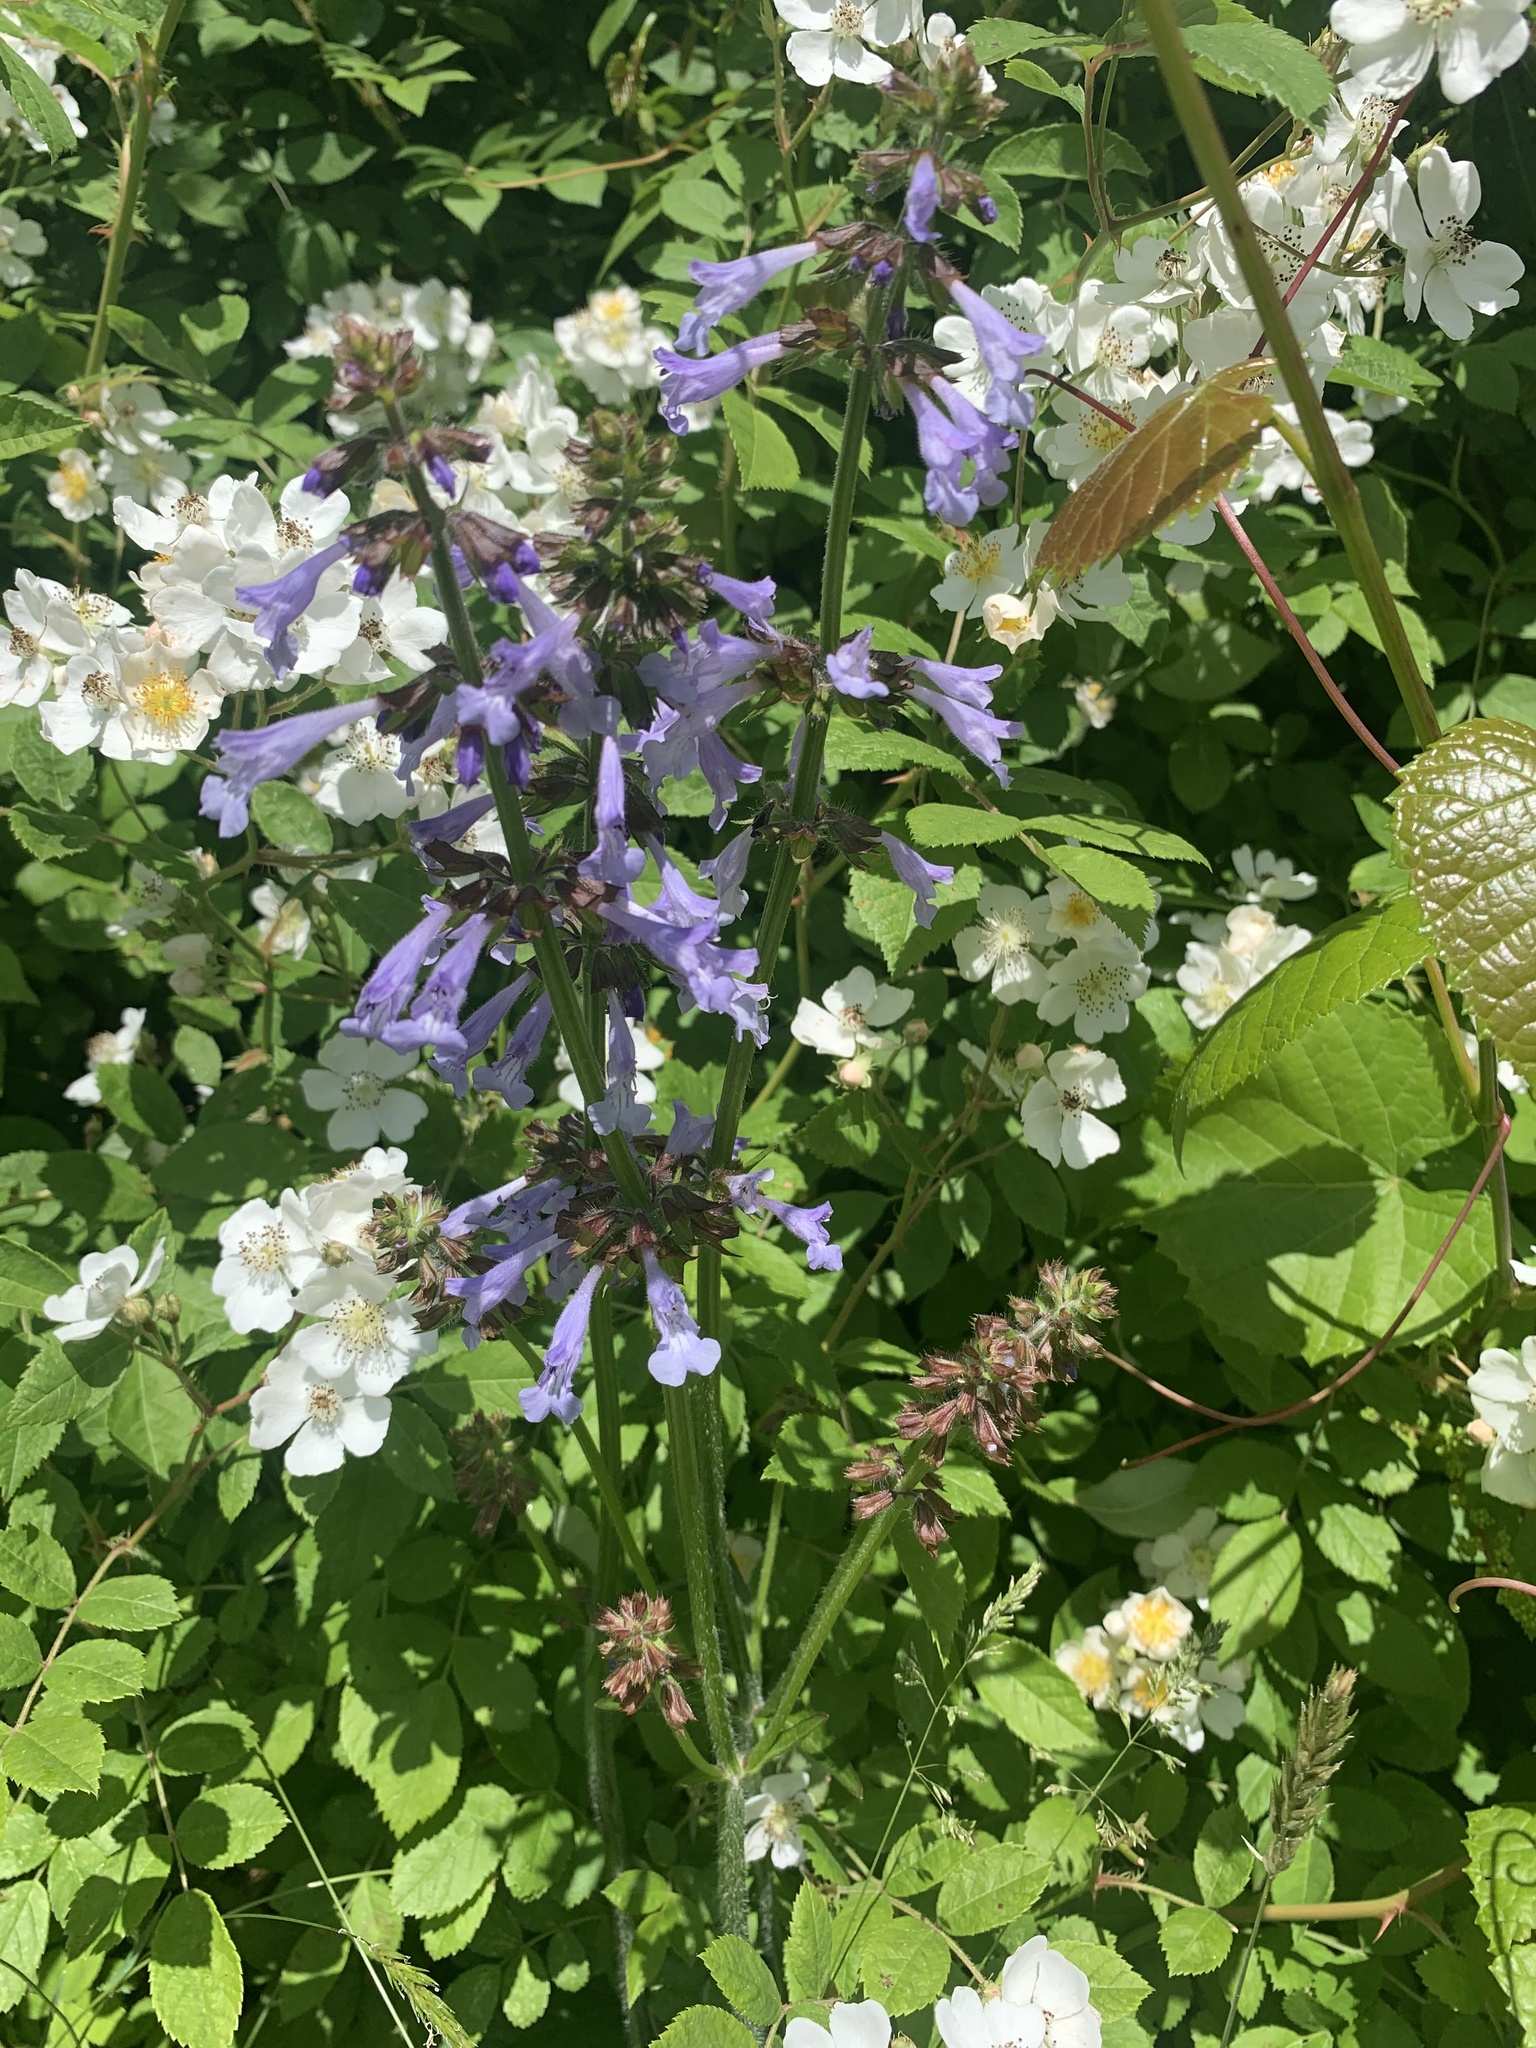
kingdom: Plantae
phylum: Tracheophyta
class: Magnoliopsida
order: Lamiales
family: Lamiaceae
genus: Salvia
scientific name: Salvia lyrata
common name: Cancerweed
